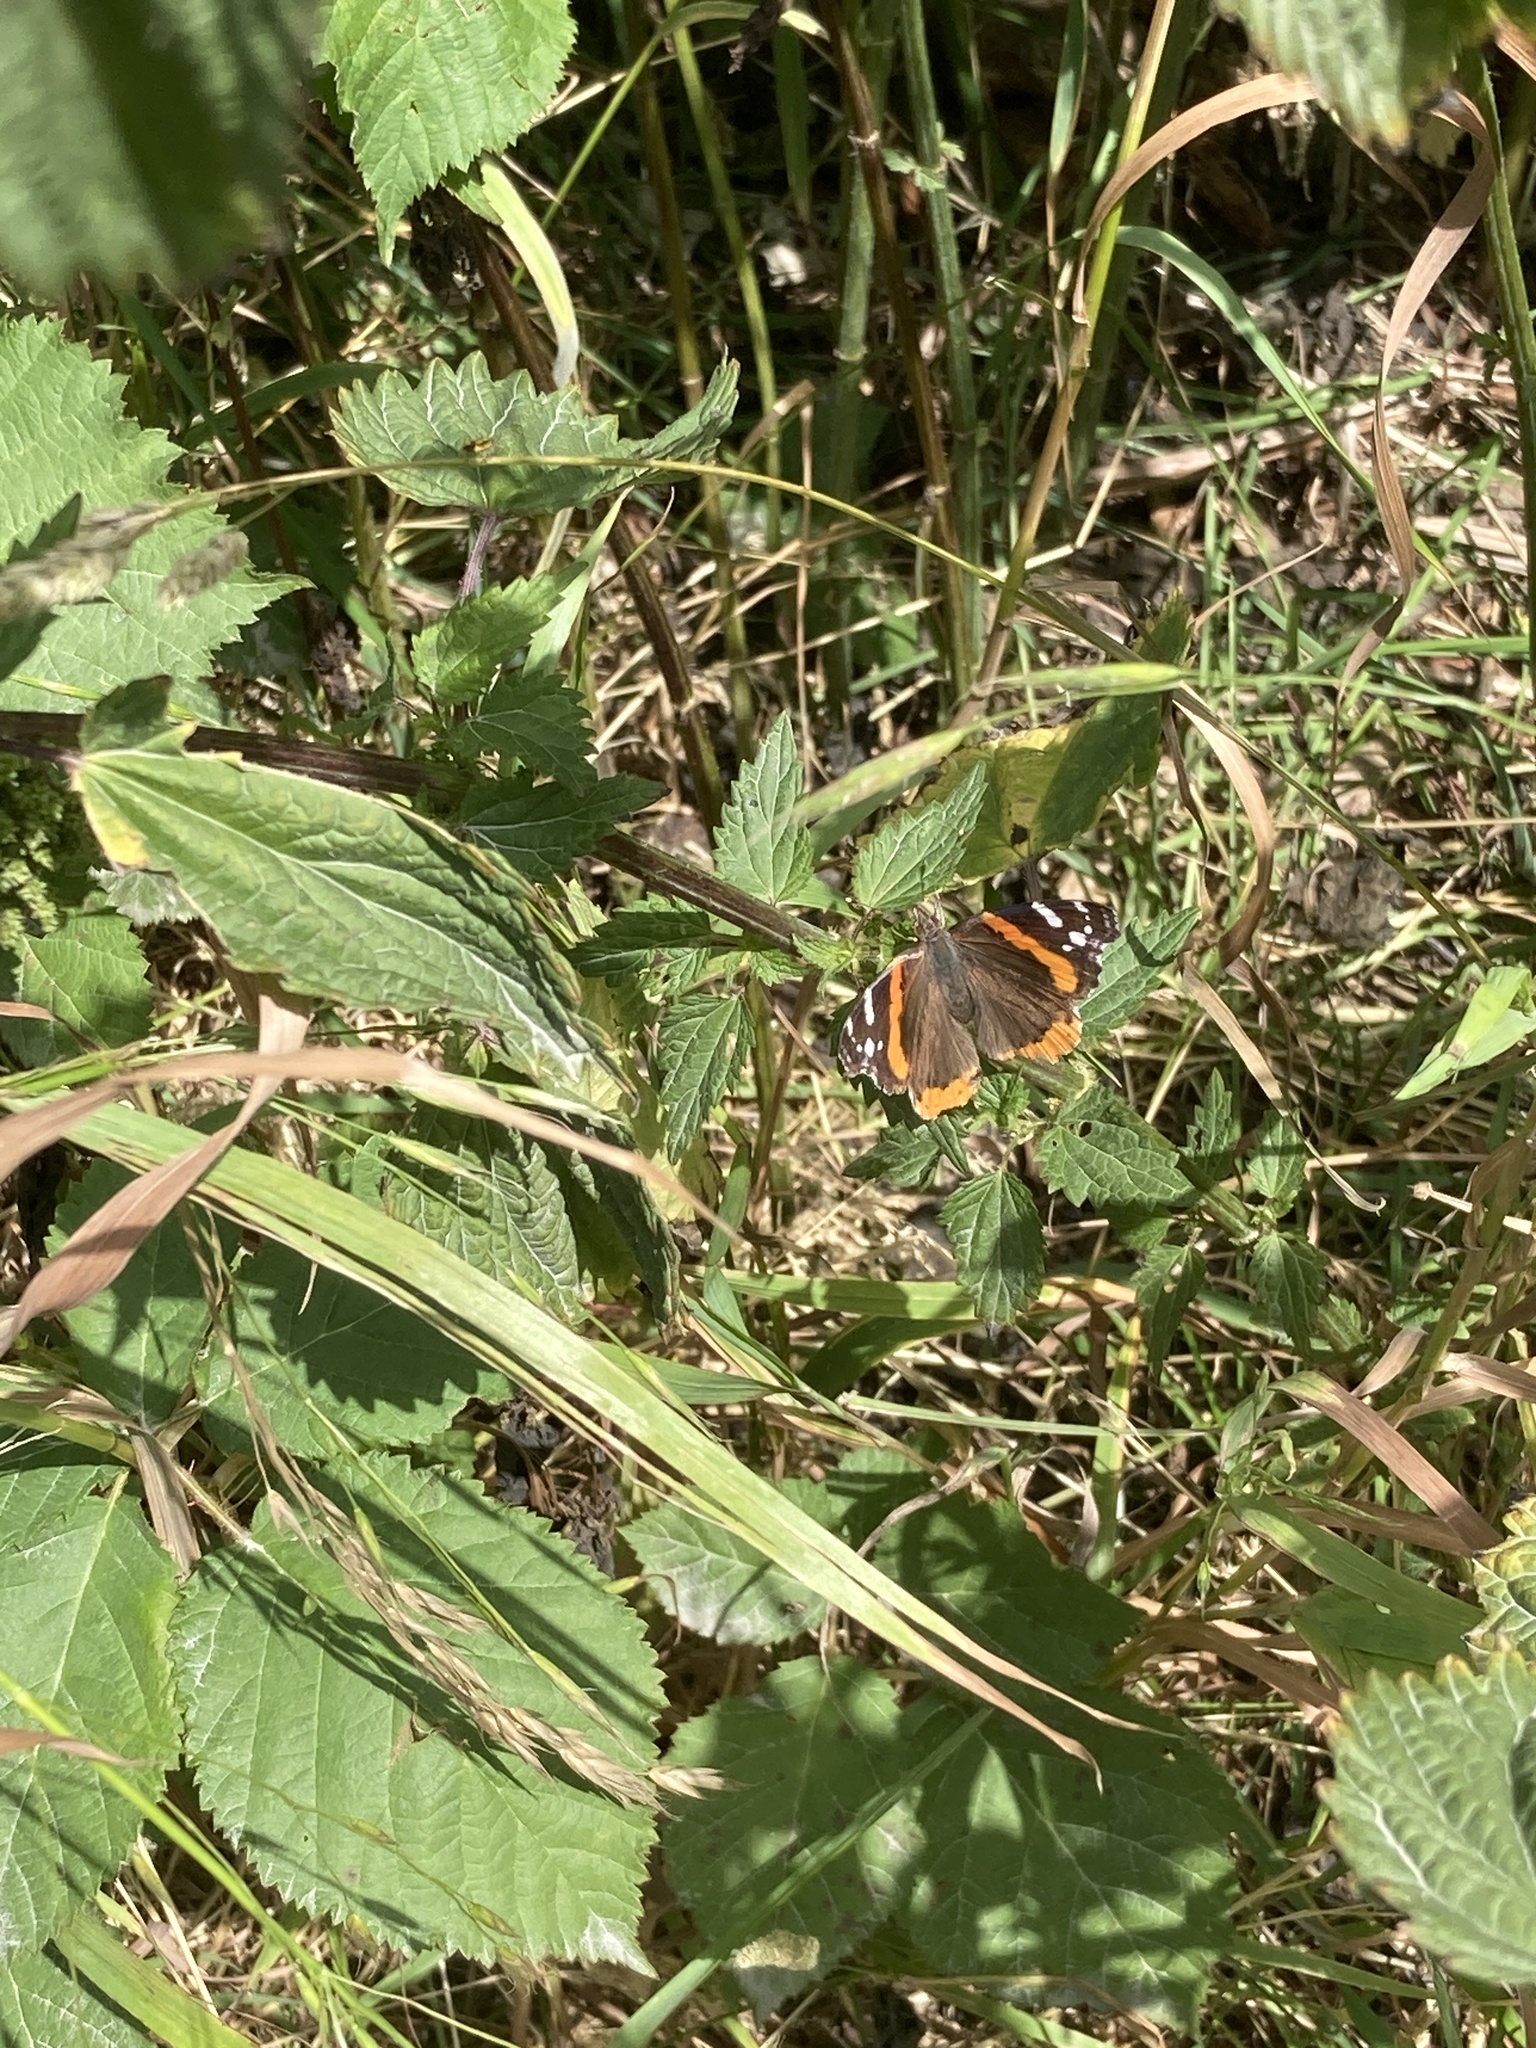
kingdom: Animalia
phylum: Arthropoda
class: Insecta
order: Lepidoptera
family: Nymphalidae
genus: Vanessa
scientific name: Vanessa atalanta
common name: Red admiral
